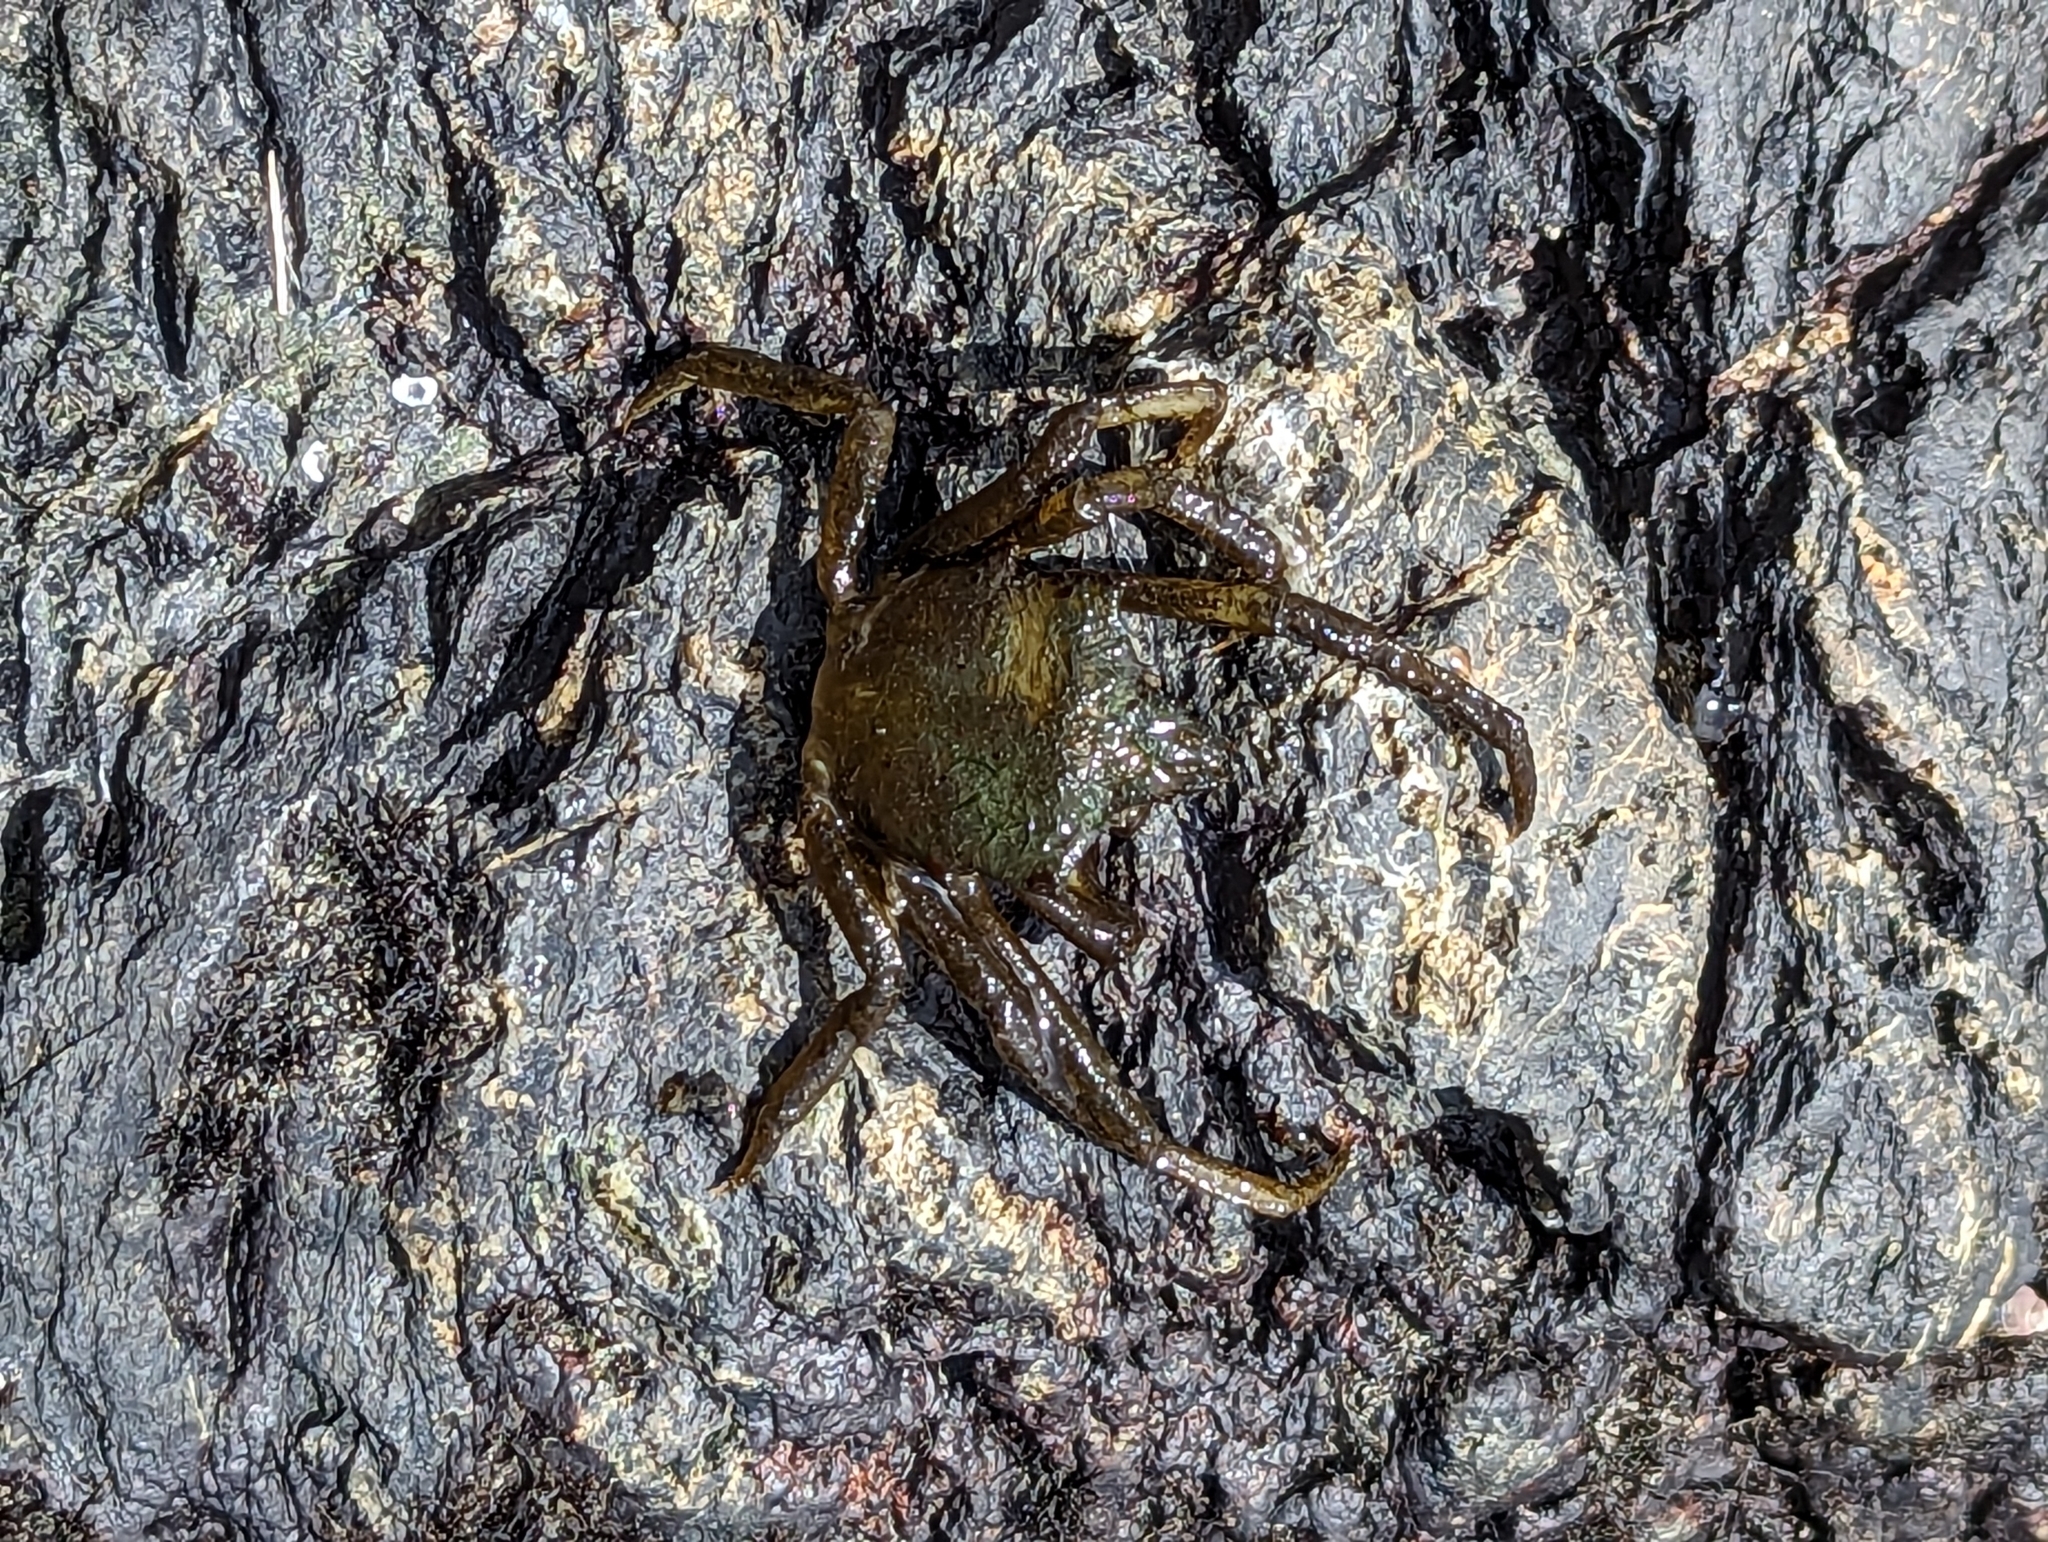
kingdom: Animalia
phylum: Arthropoda
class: Malacostraca
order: Decapoda
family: Epialtidae
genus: Pugettia
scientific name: Pugettia producta
